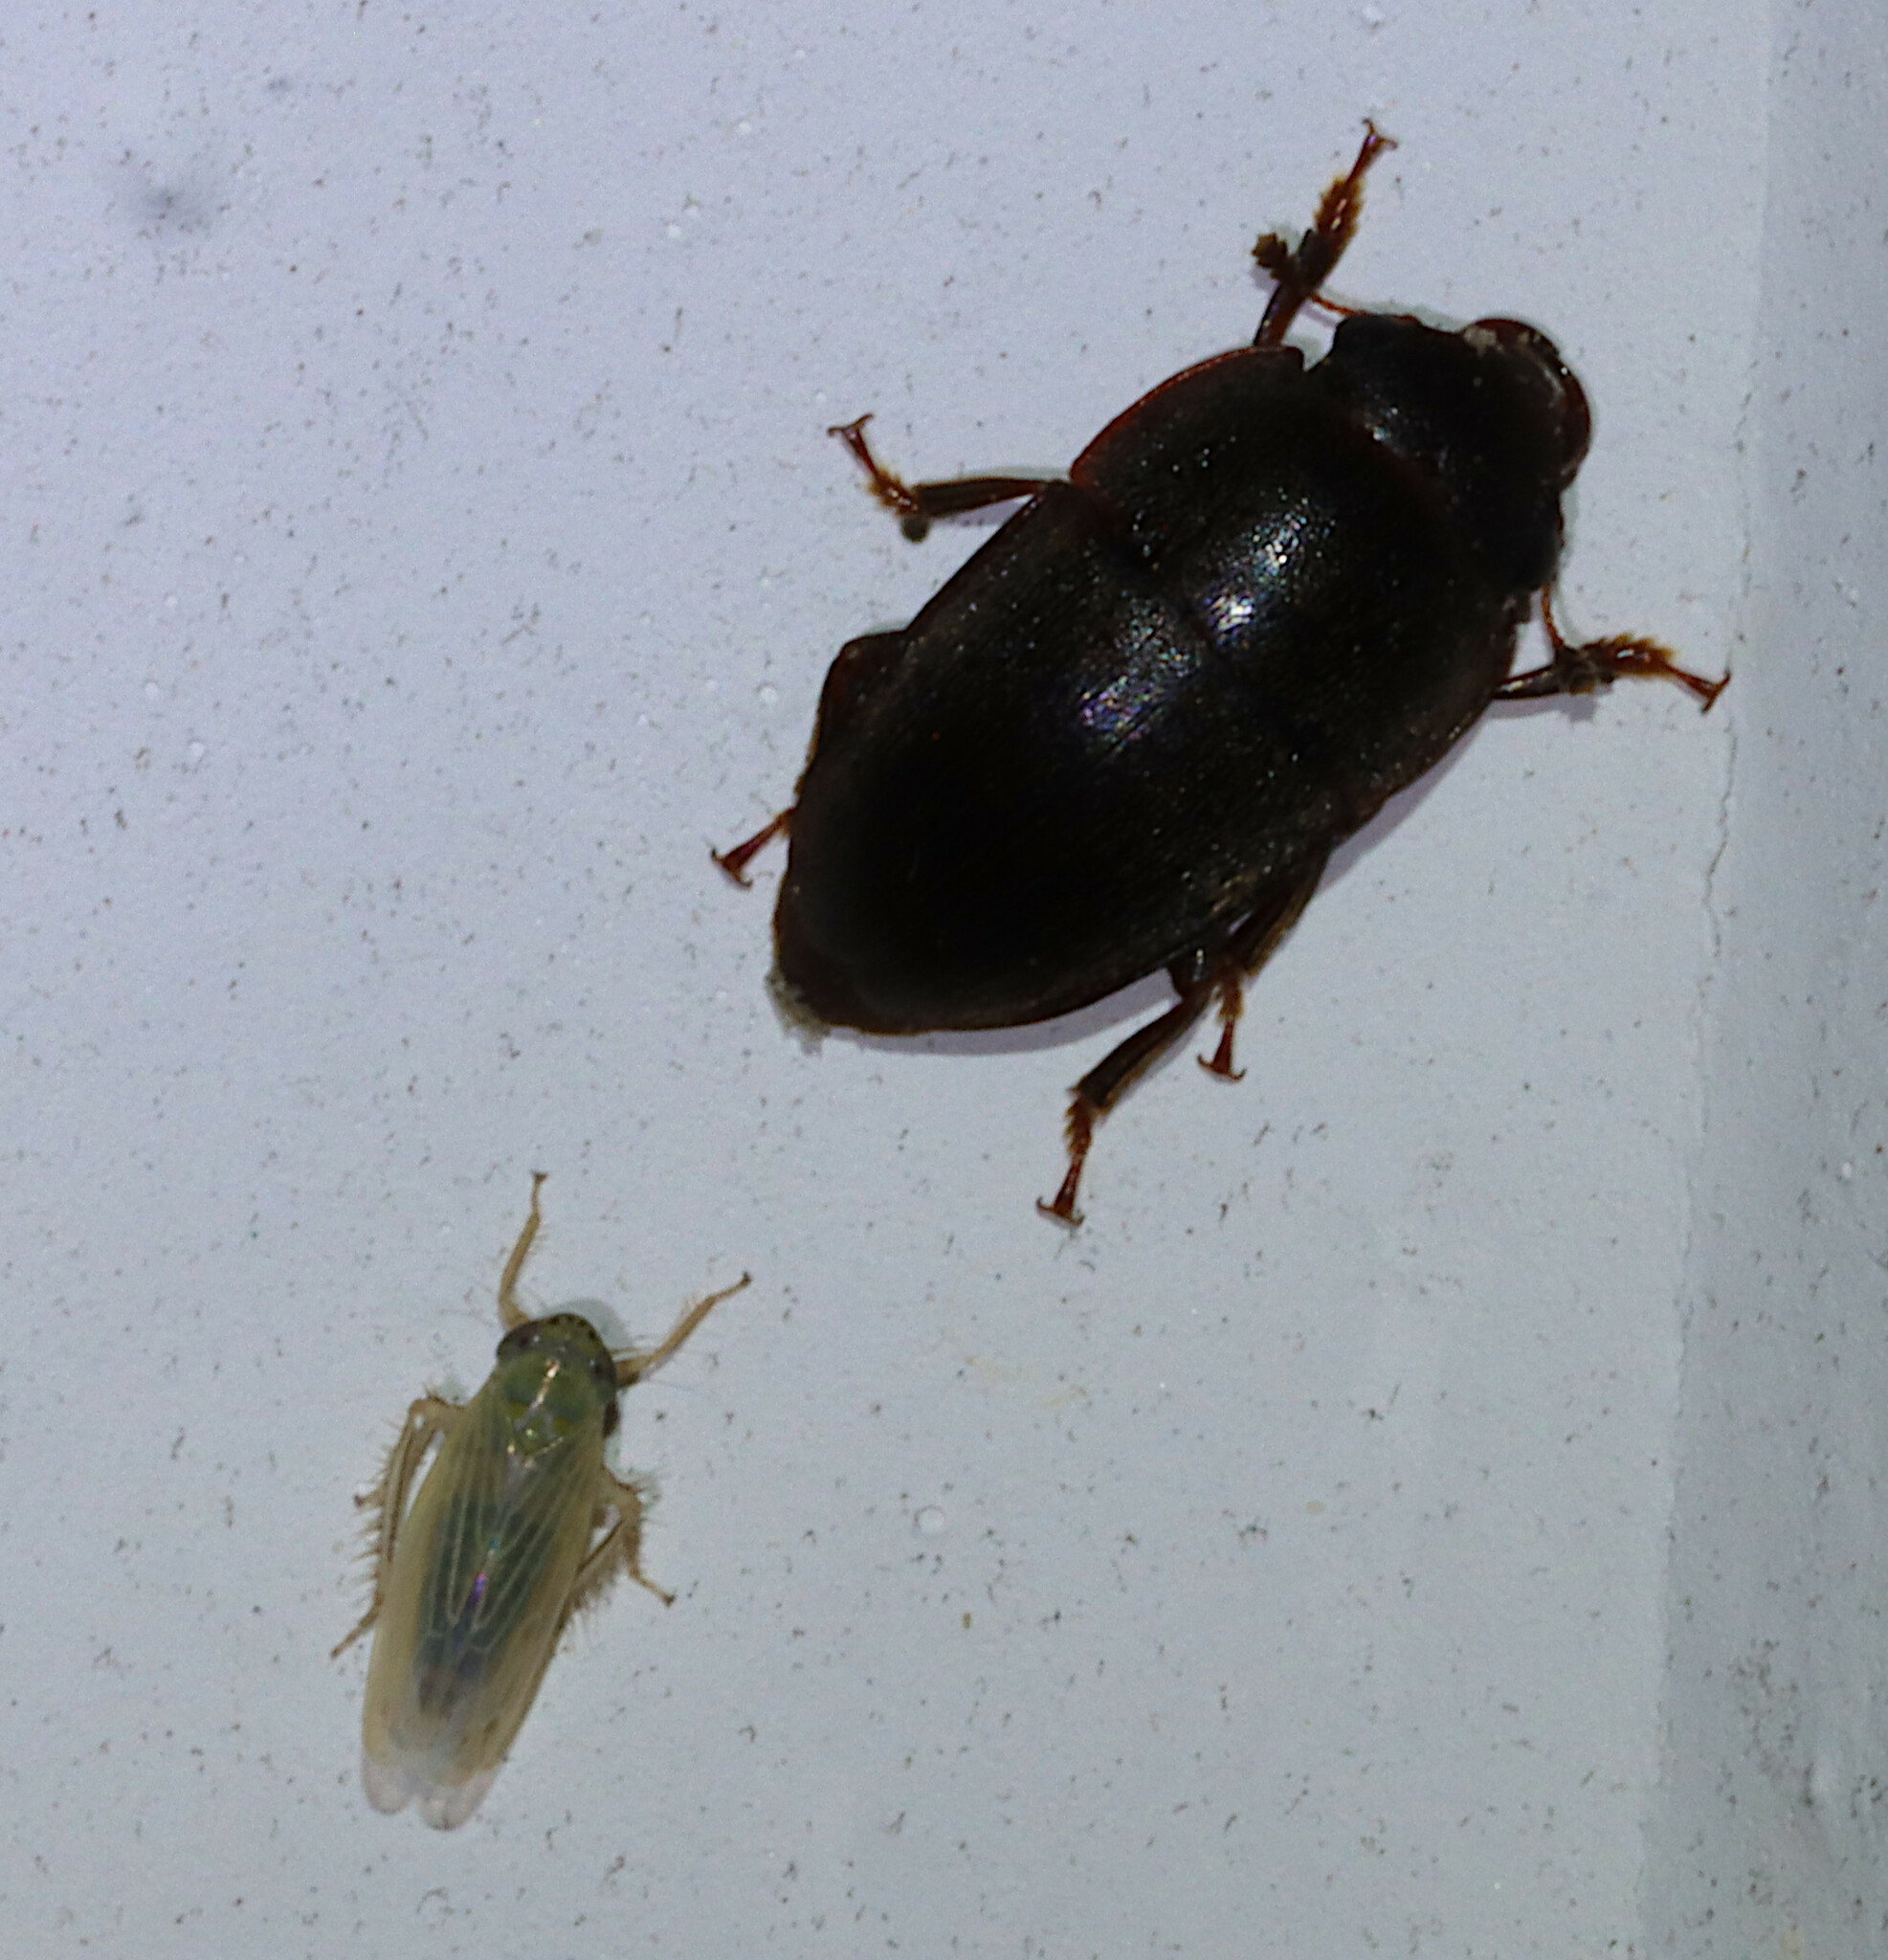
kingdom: Animalia
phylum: Arthropoda
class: Insecta
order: Coleoptera
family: Nitidulidae
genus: Cryptarcha
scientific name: Cryptarcha ampla
